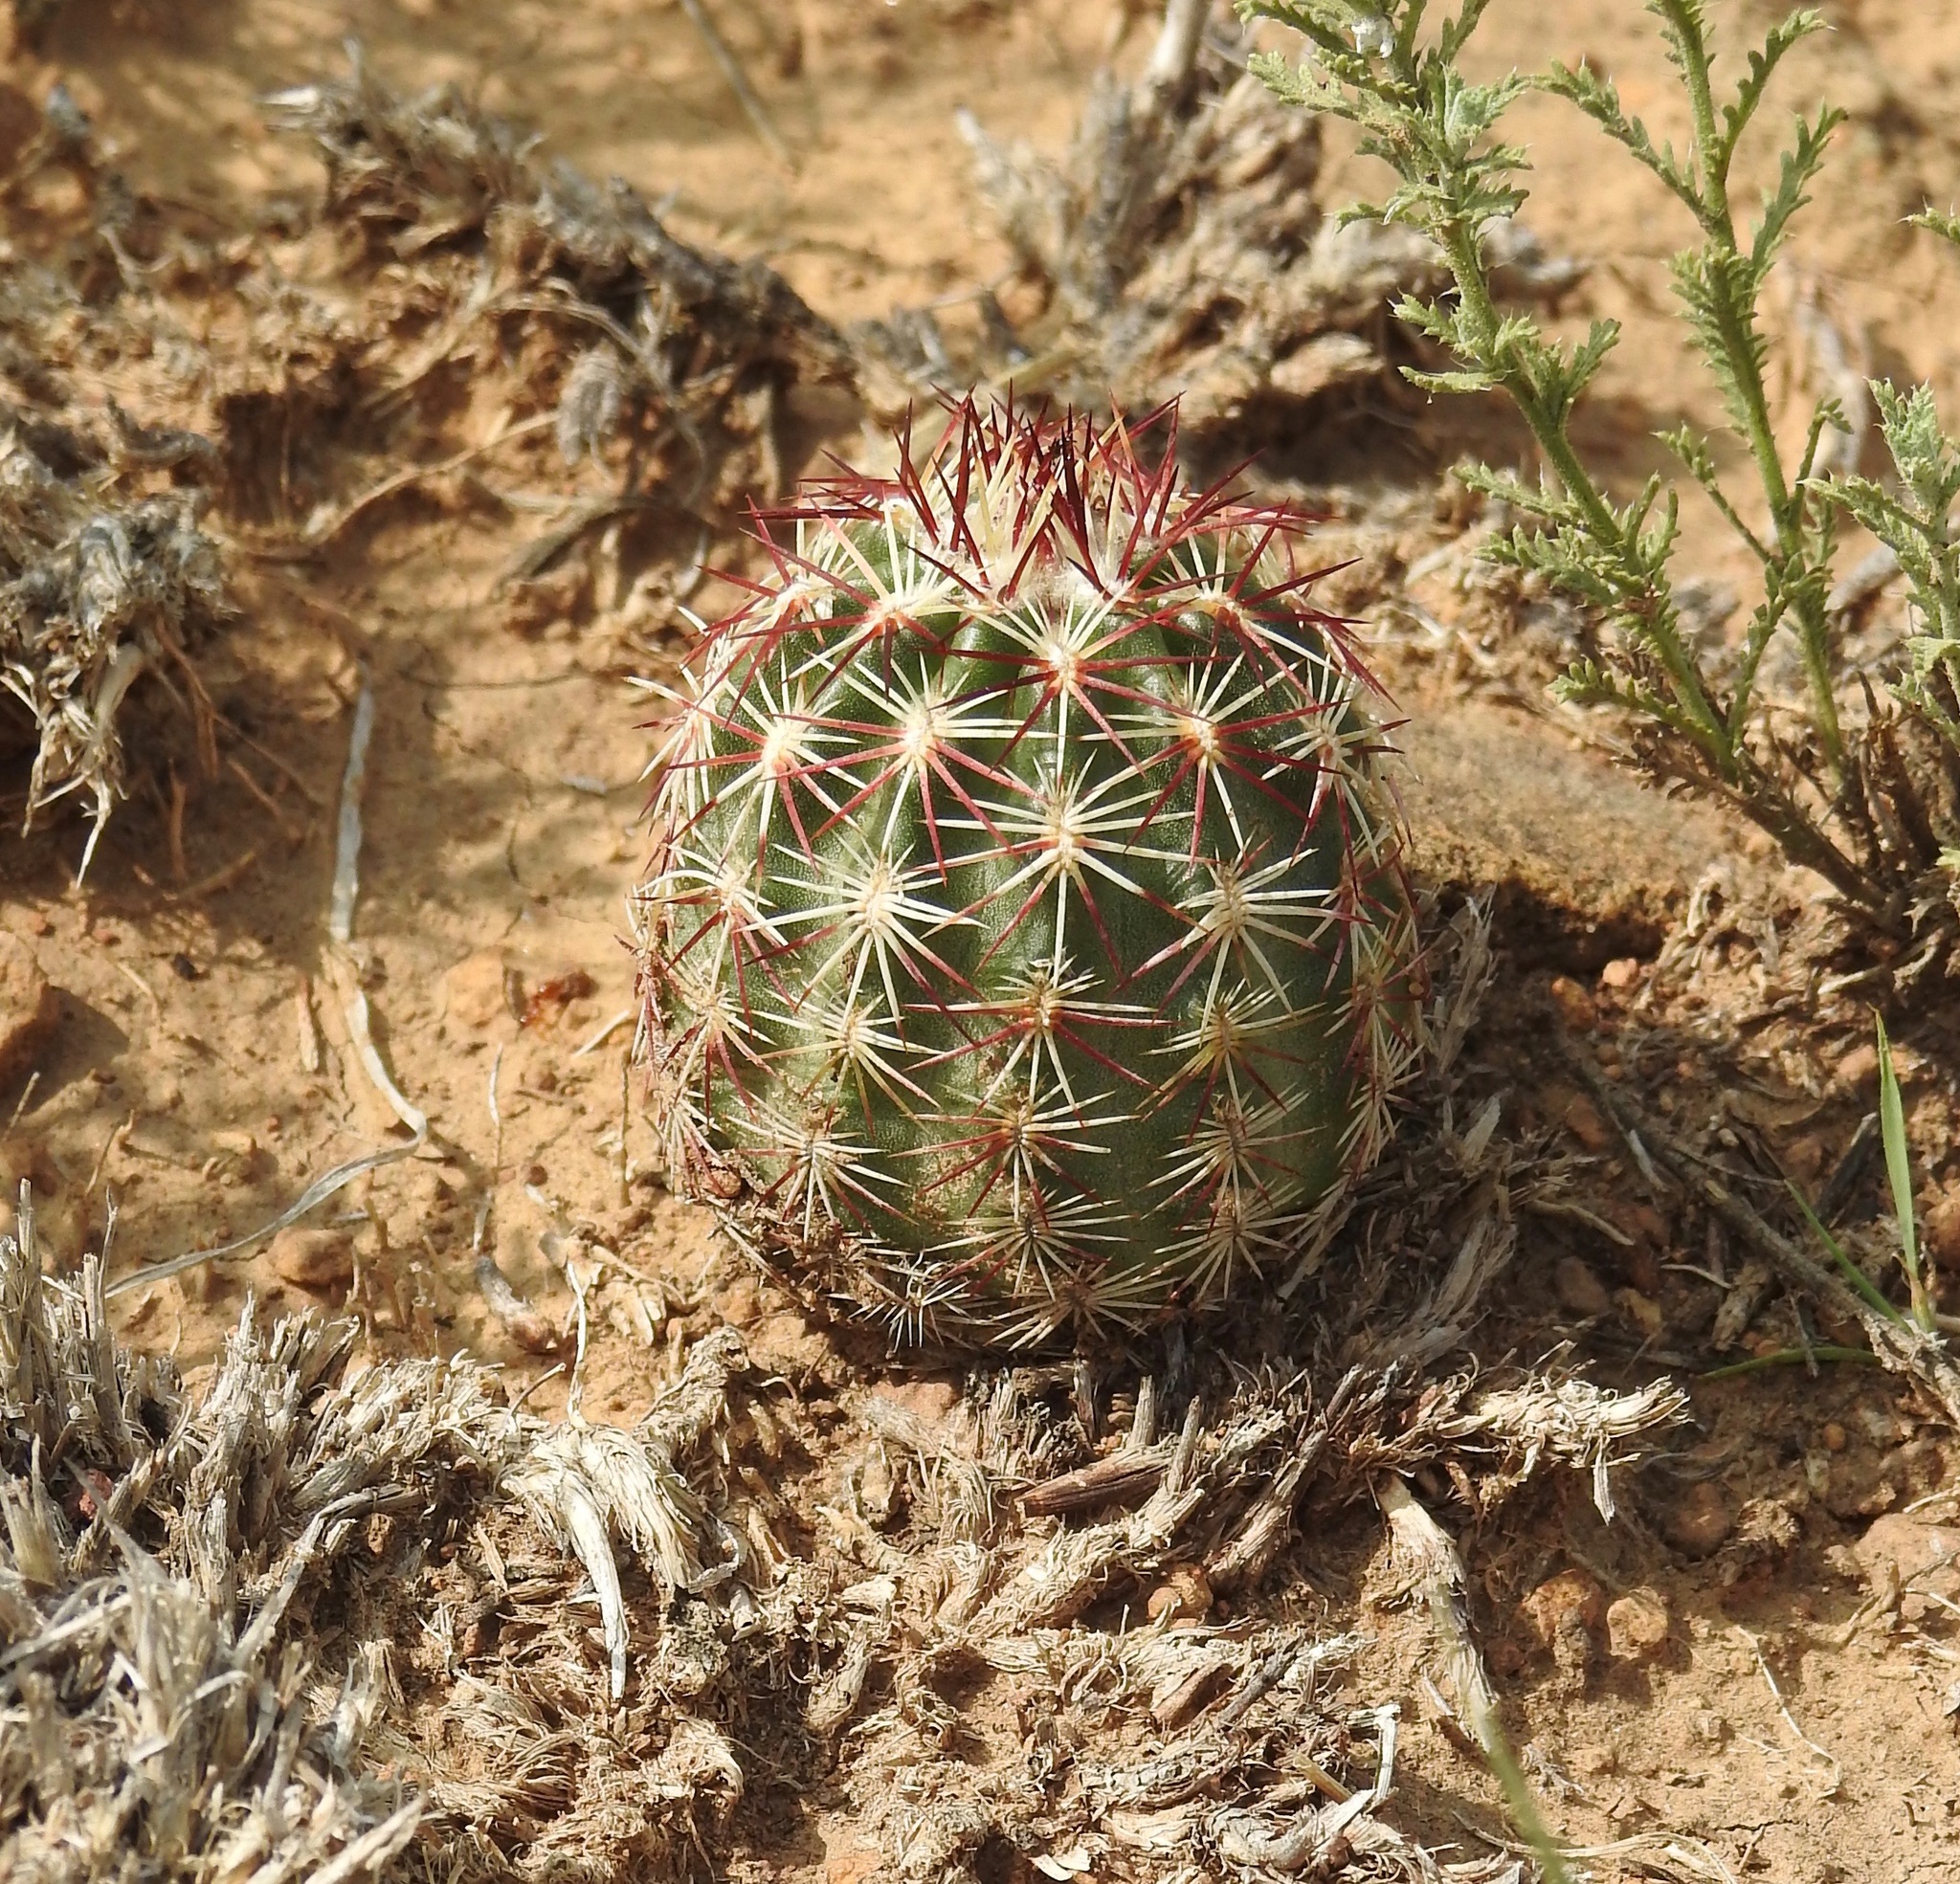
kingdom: Plantae
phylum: Tracheophyta
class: Magnoliopsida
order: Caryophyllales
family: Cactaceae
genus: Echinocereus
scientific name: Echinocereus viridiflorus
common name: Nylon hedgehog cactus
